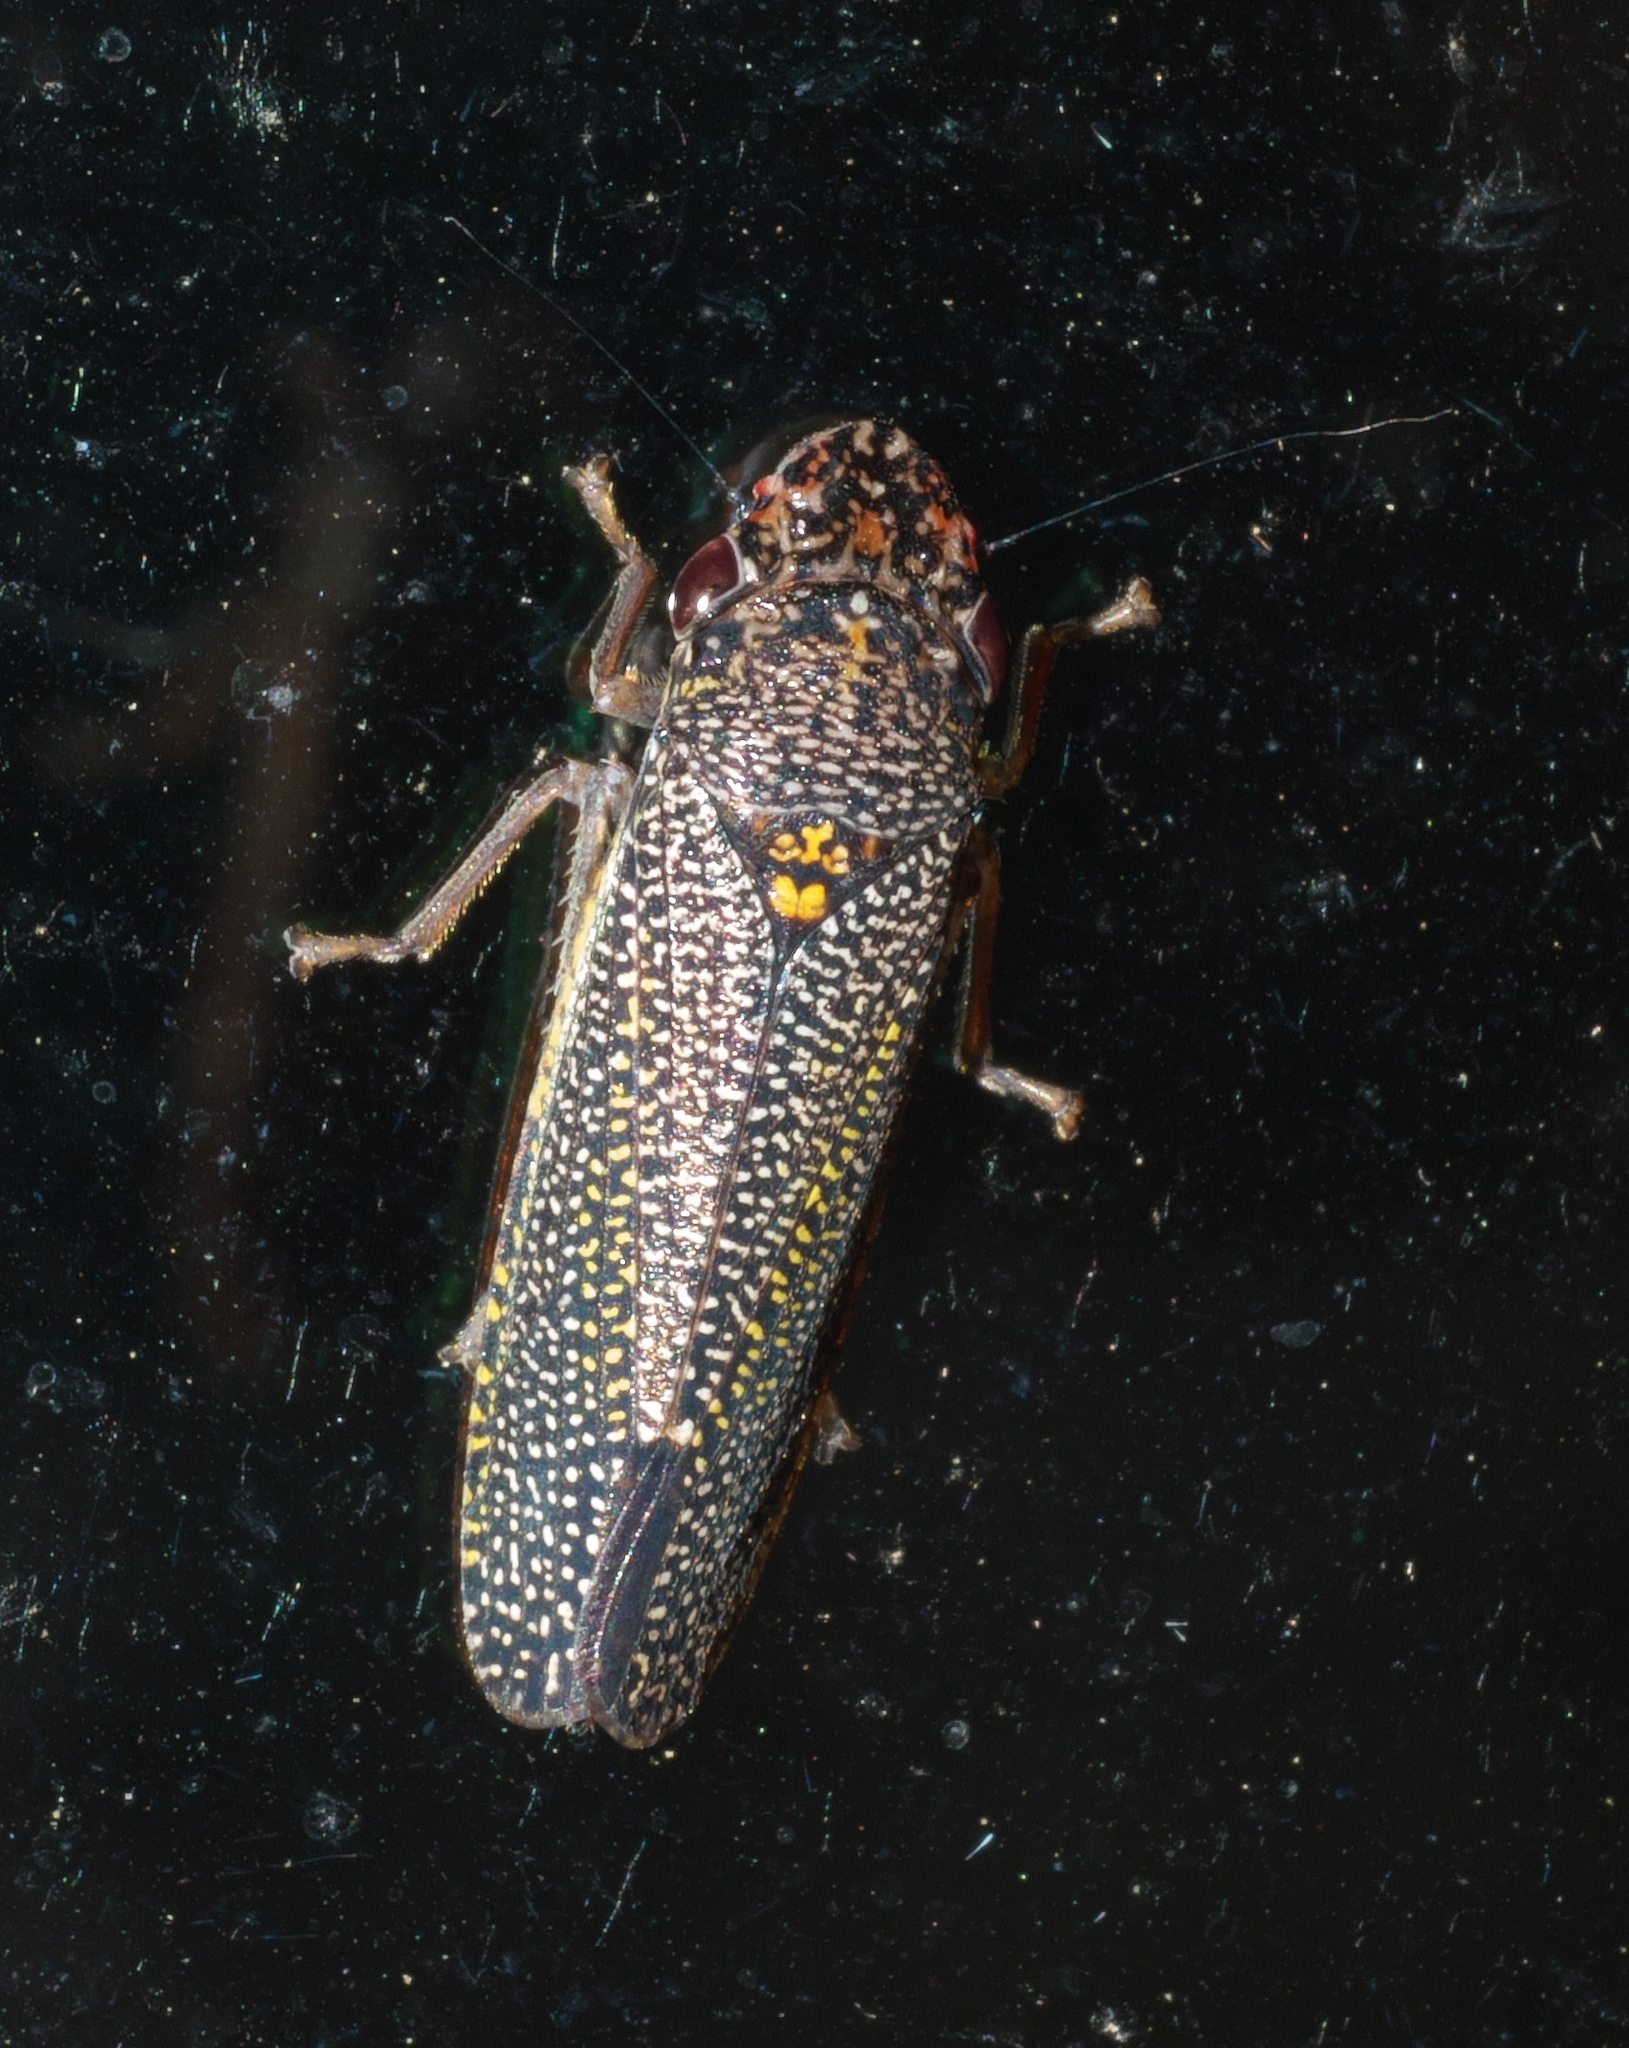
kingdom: Animalia
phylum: Arthropoda
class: Insecta
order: Hemiptera
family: Cicadellidae
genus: Paraulacizes
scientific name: Paraulacizes irrorata
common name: Speckled sharpshooter
